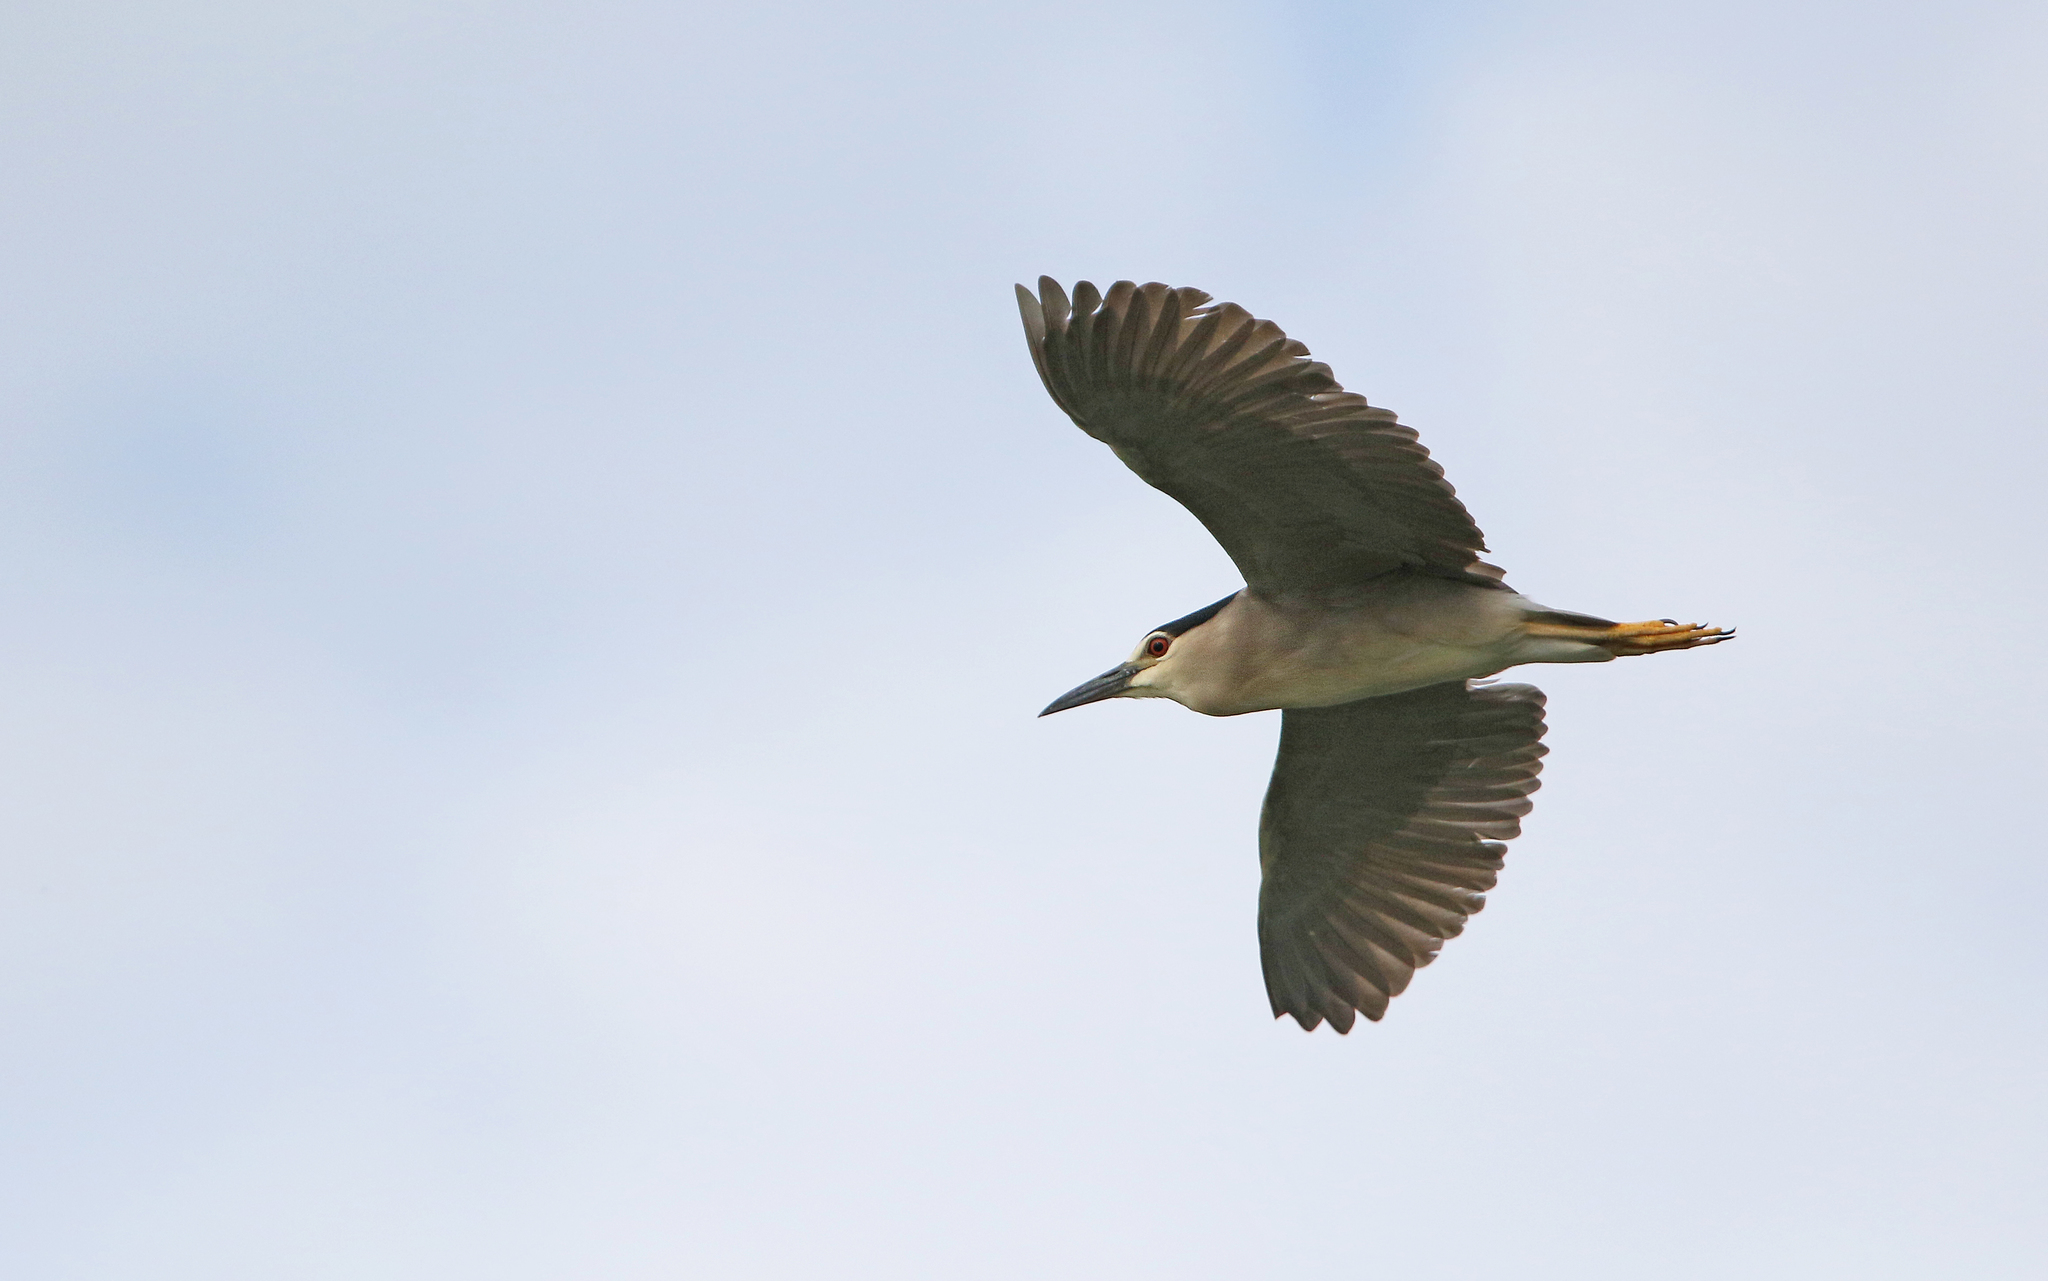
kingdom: Animalia
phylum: Chordata
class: Aves
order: Pelecaniformes
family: Ardeidae
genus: Nycticorax
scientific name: Nycticorax nycticorax
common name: Black-crowned night heron
